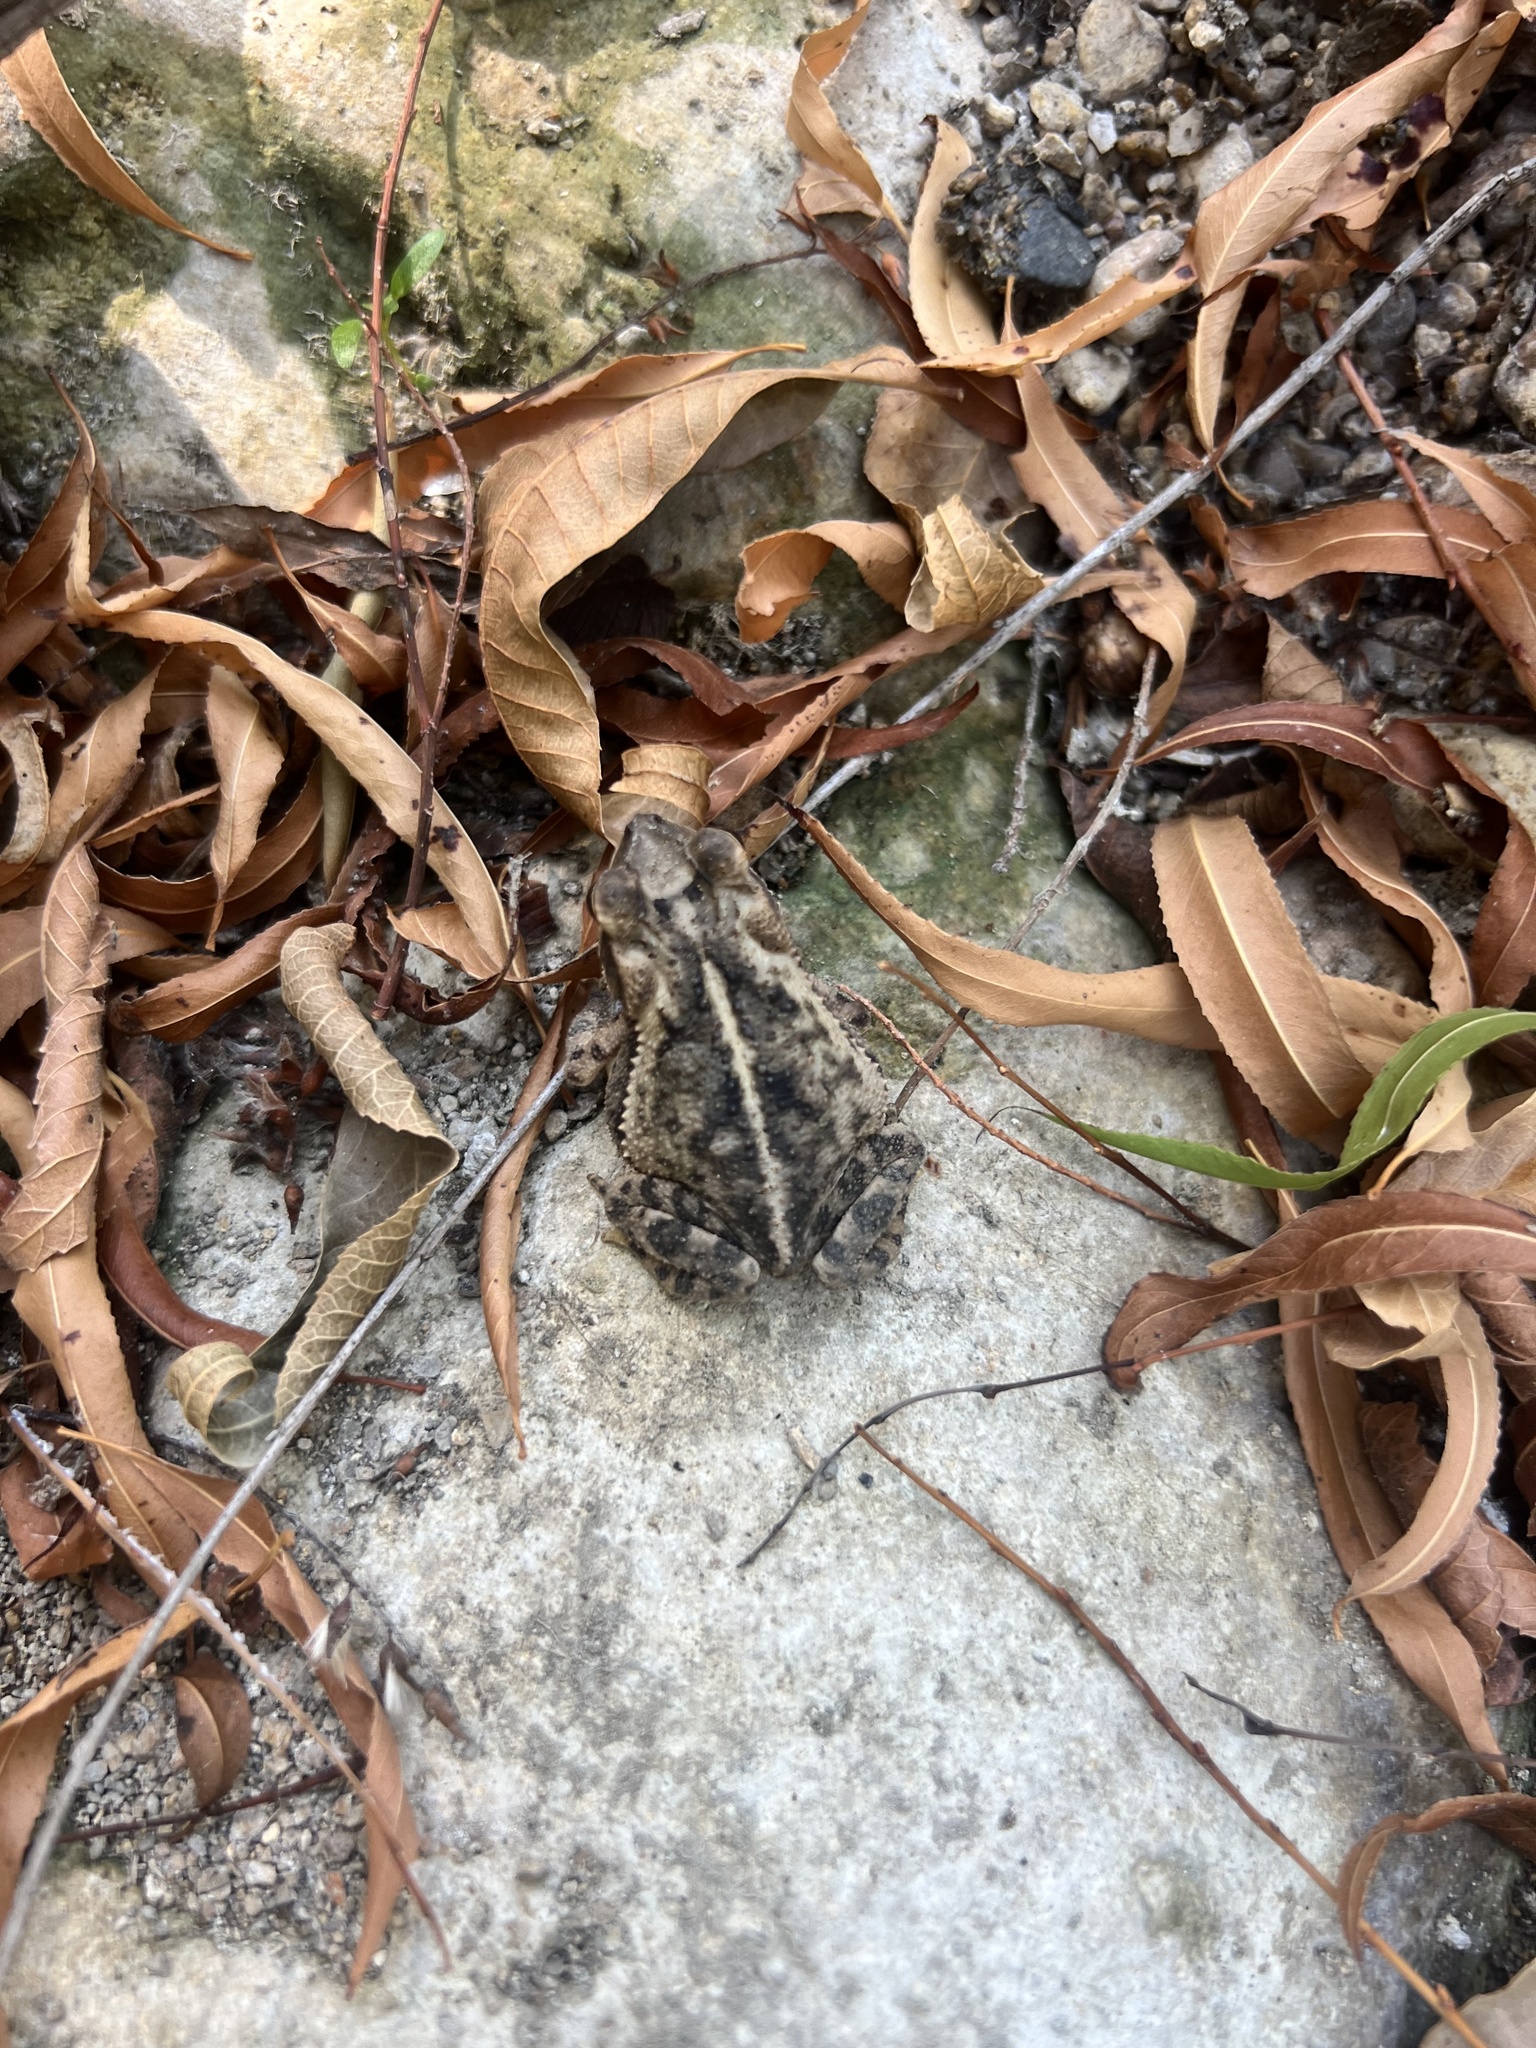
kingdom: Animalia
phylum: Chordata
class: Amphibia
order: Anura
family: Bufonidae
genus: Incilius
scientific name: Incilius nebulifer
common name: Gulf coast toad
